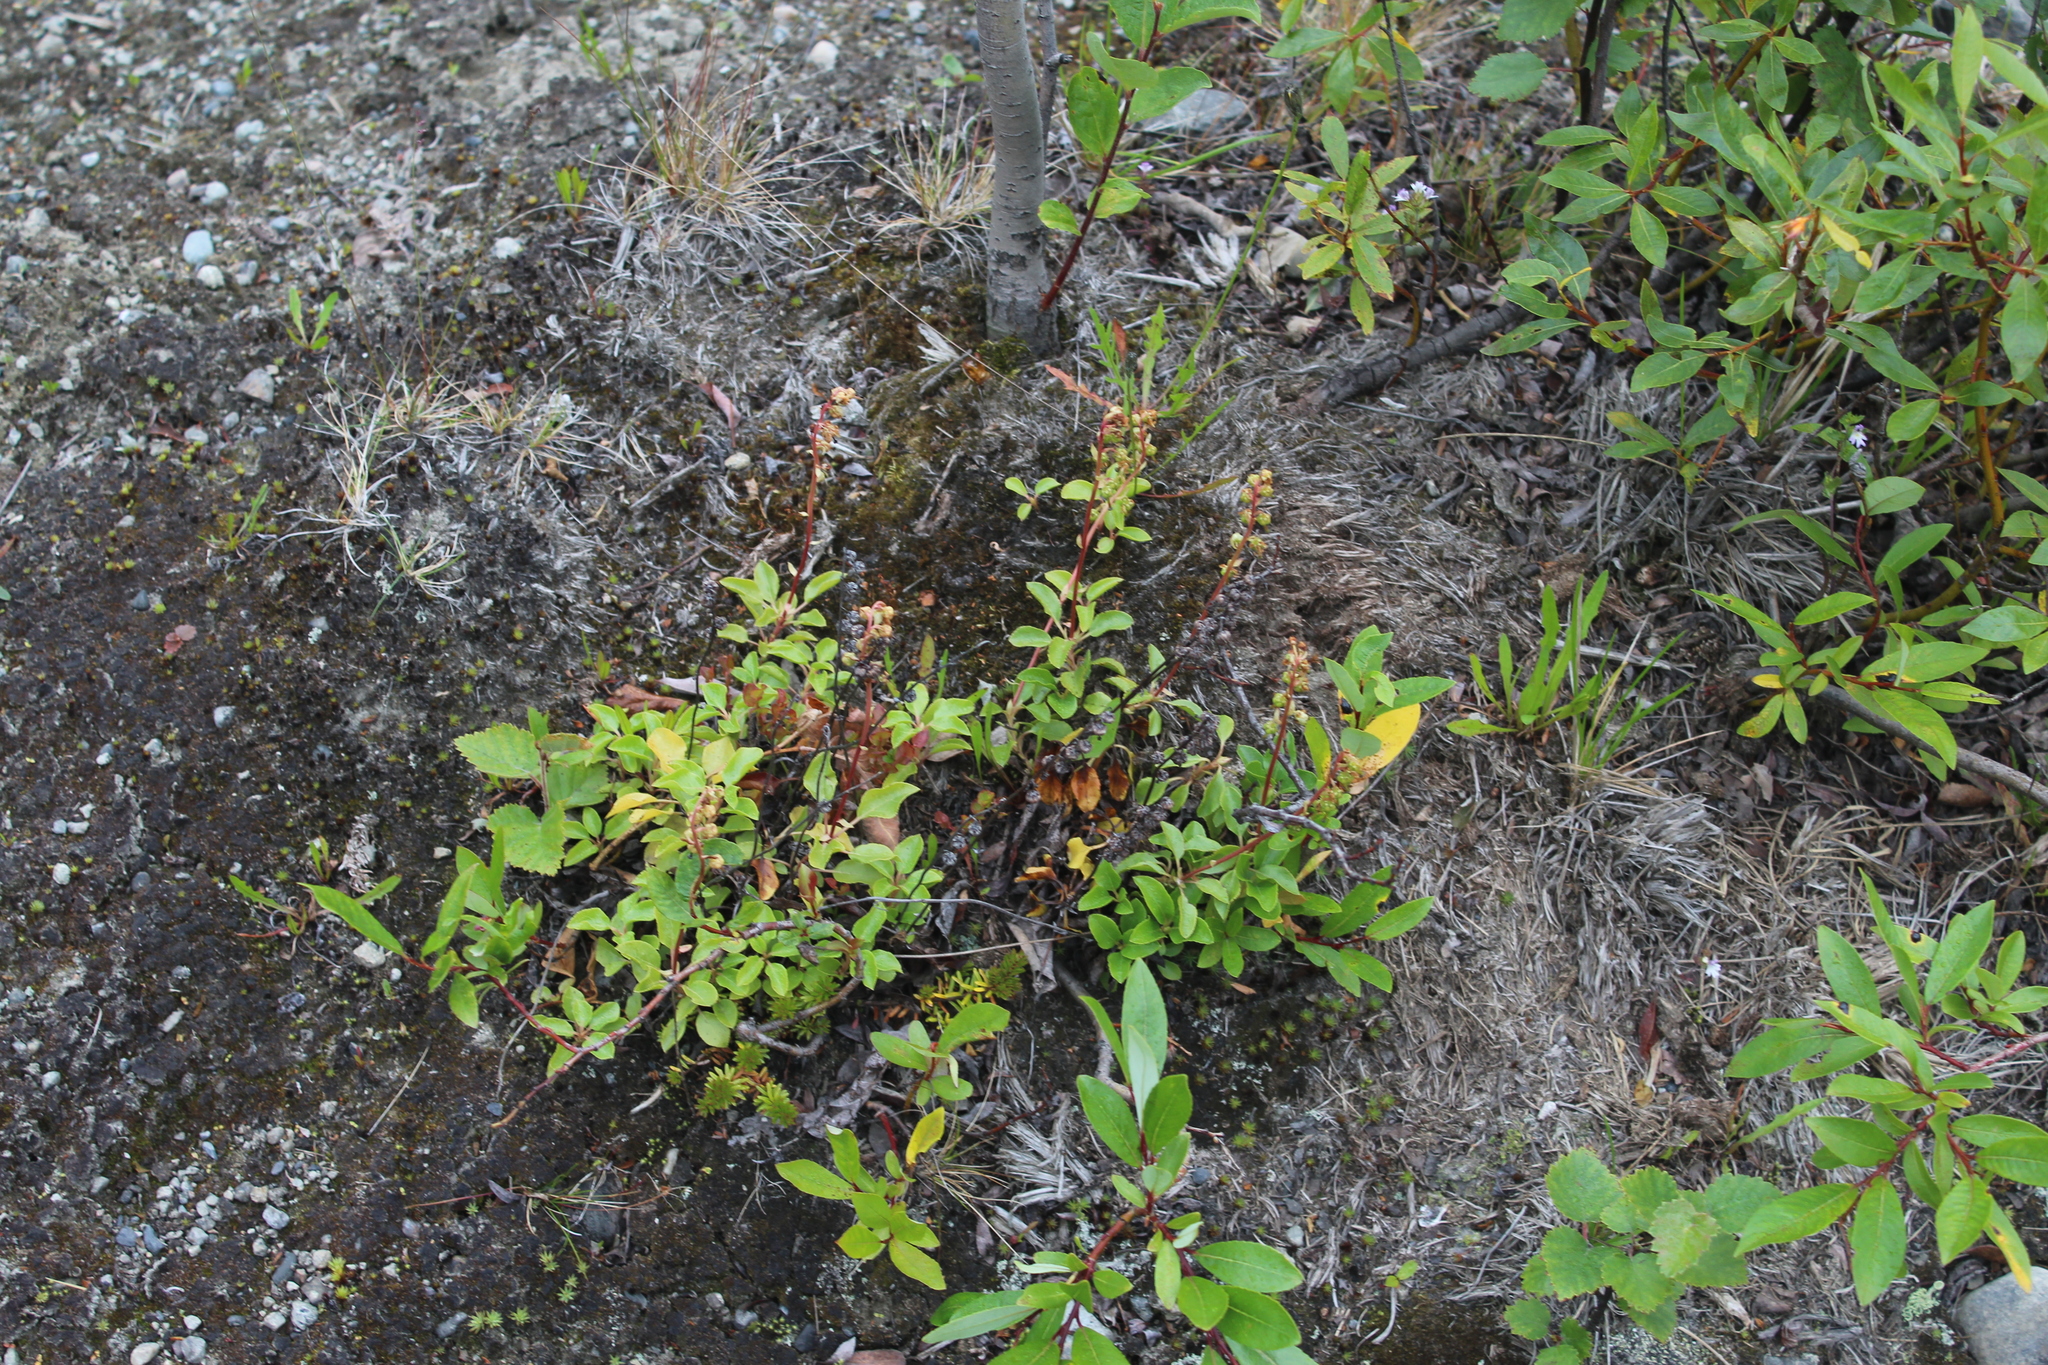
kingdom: Plantae
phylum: Tracheophyta
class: Magnoliopsida
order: Ericales
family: Ericaceae
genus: Orthilia
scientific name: Orthilia secunda
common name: One-sided orthilia
